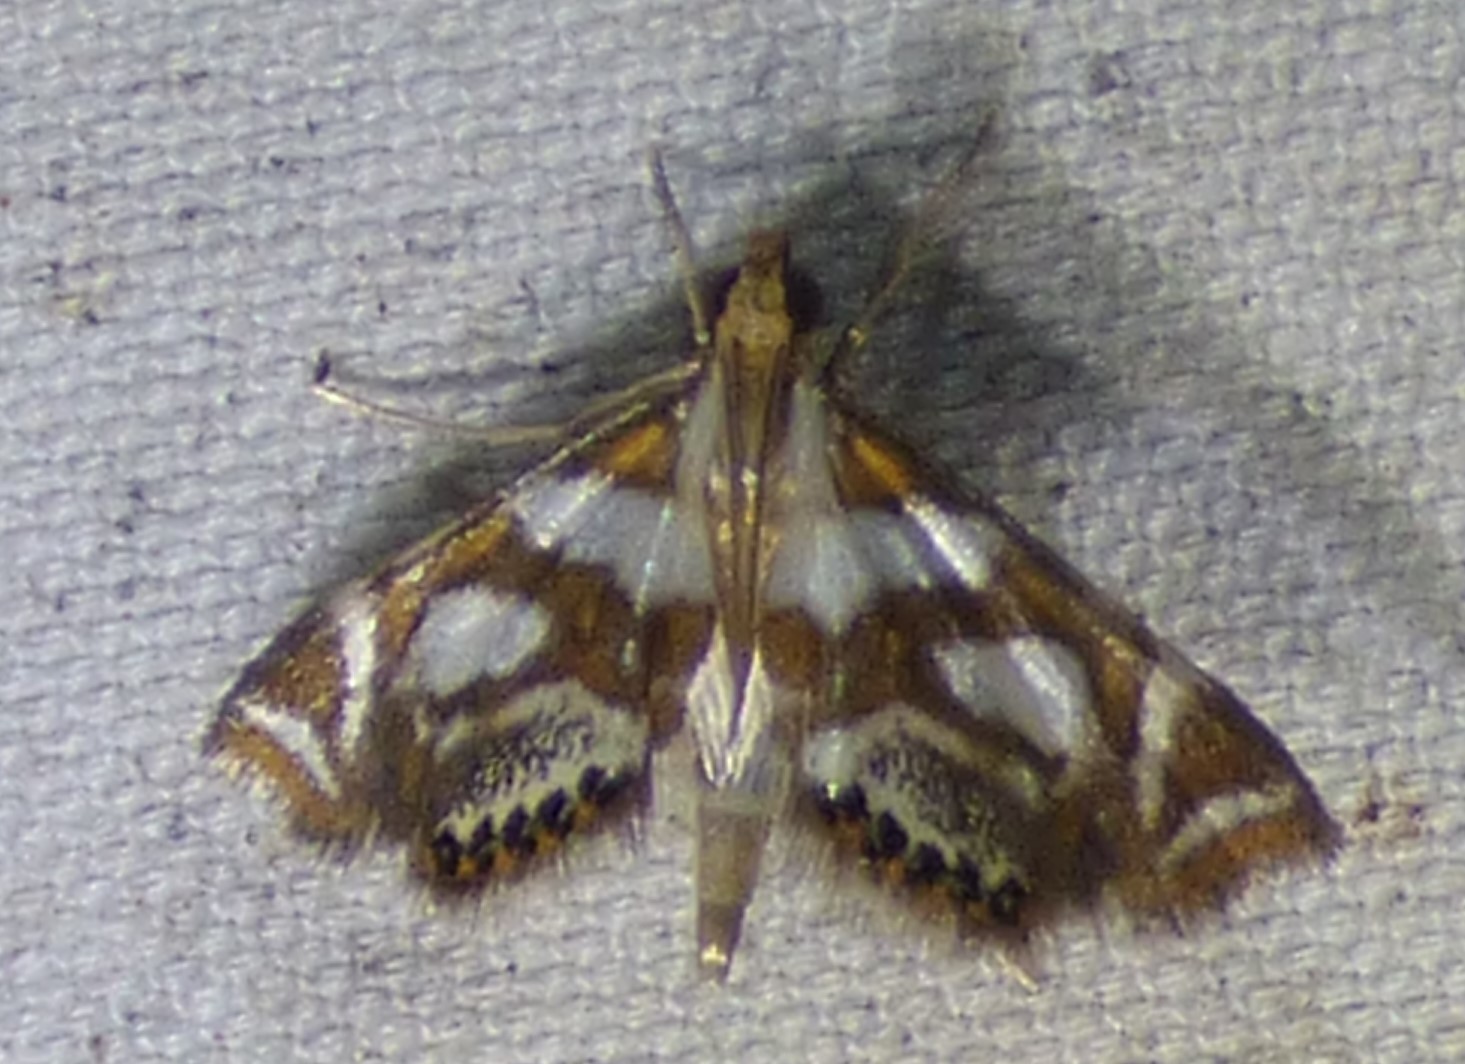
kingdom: Animalia
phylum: Arthropoda
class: Insecta
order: Lepidoptera
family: Crambidae
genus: Chrysendeton
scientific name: Chrysendeton medicinalis
